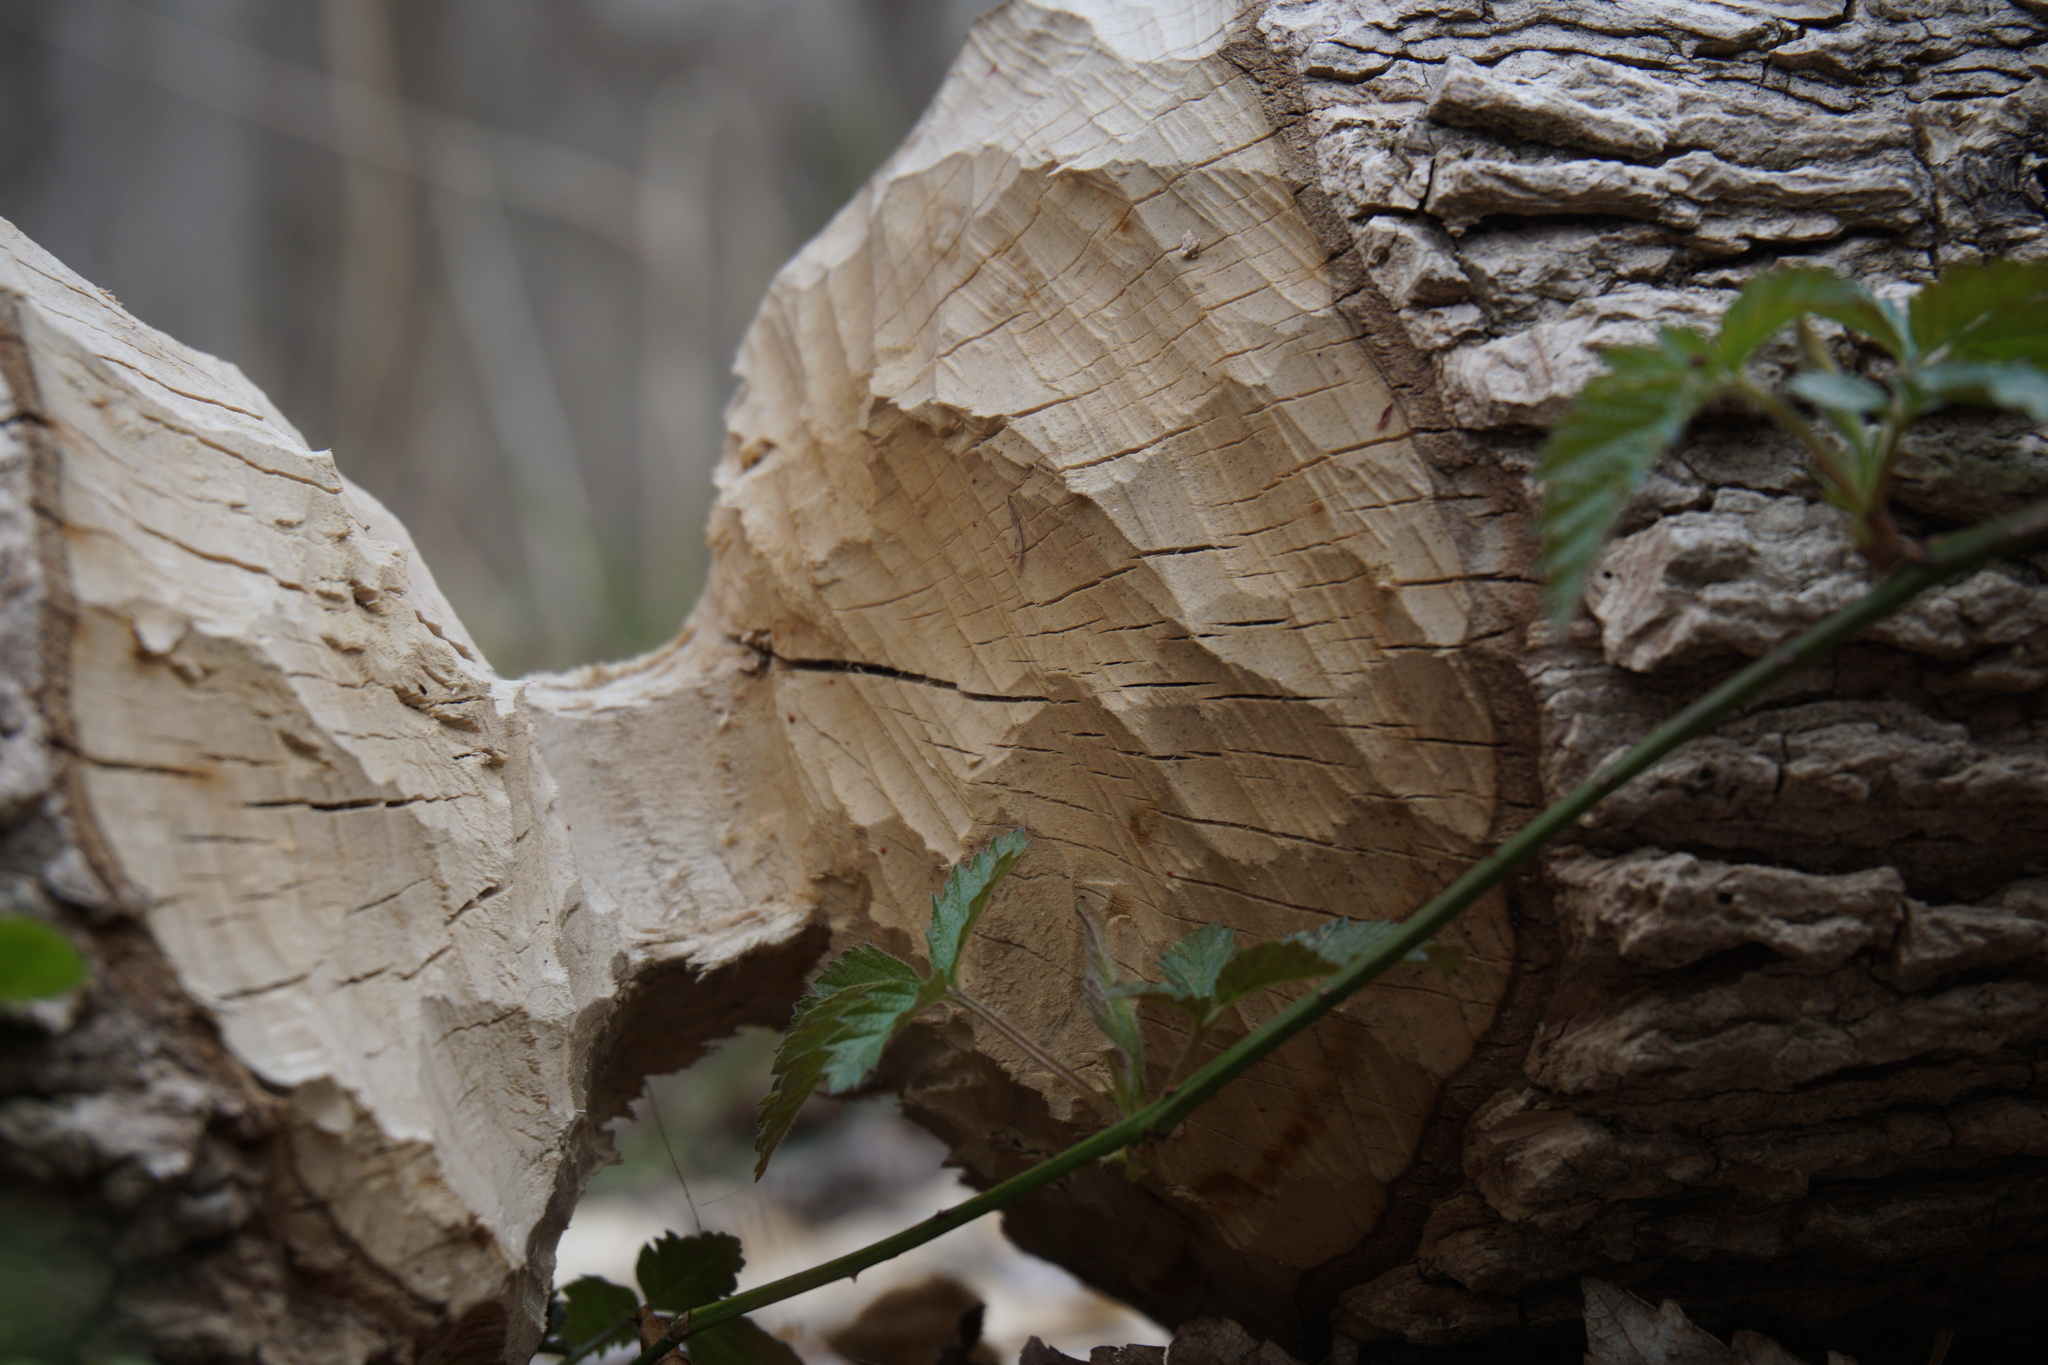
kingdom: Animalia
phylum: Chordata
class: Mammalia
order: Rodentia
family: Castoridae
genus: Castor
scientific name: Castor canadensis
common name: American beaver
